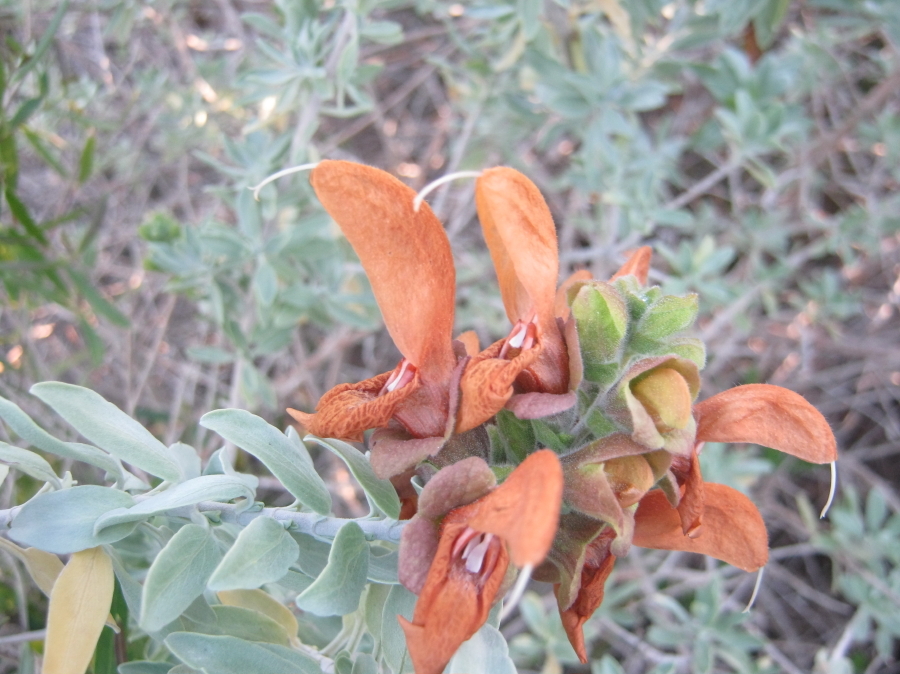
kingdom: Plantae
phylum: Tracheophyta
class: Magnoliopsida
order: Lamiales
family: Lamiaceae
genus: Salvia
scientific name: Salvia aurea
